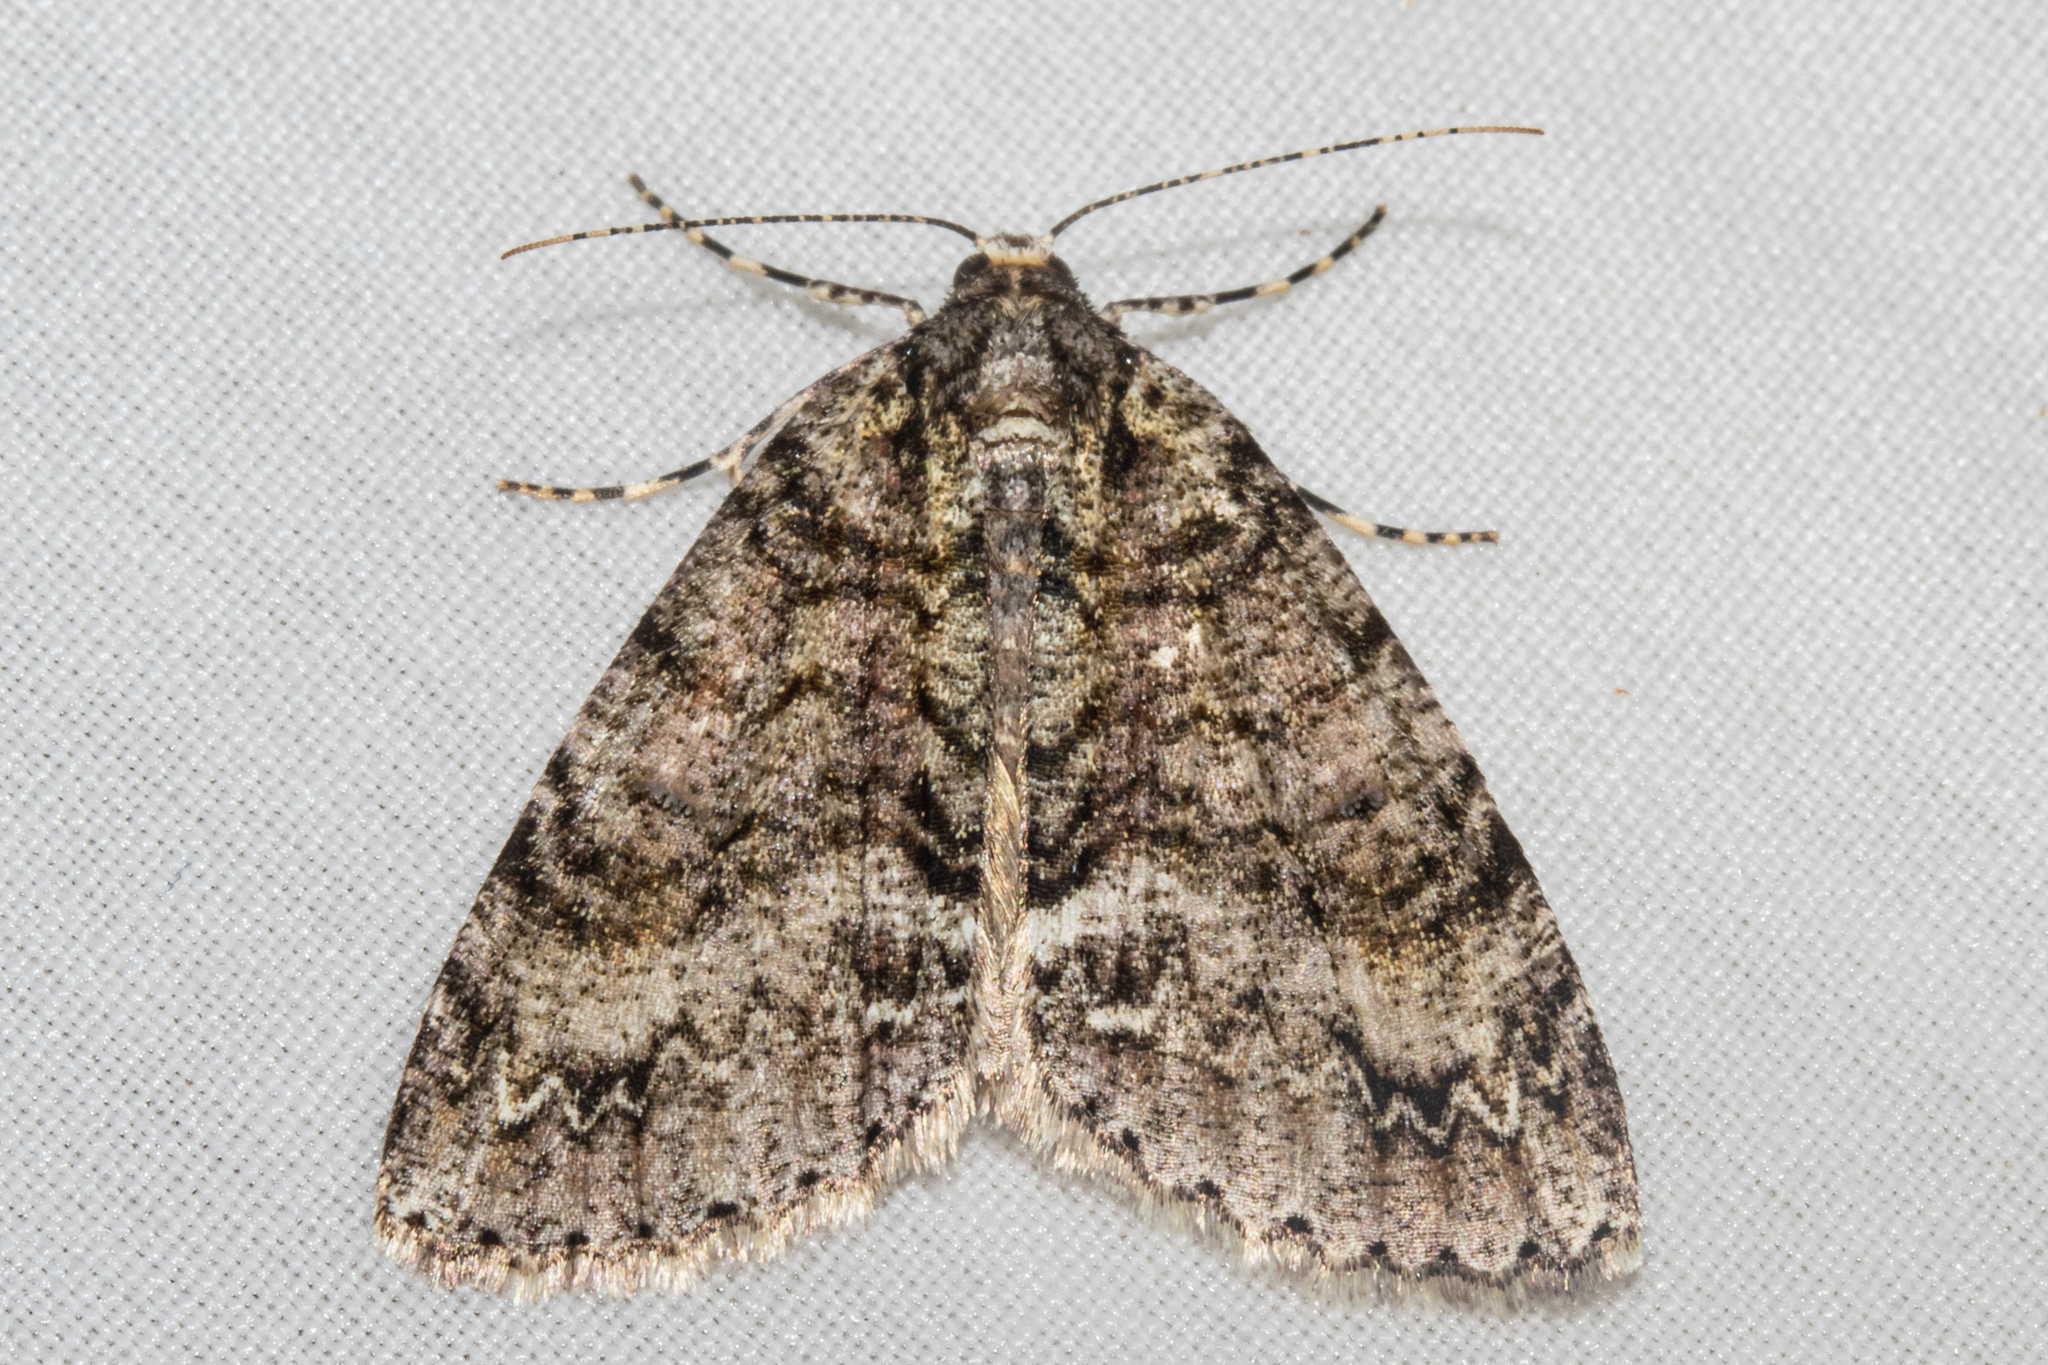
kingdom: Animalia
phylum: Arthropoda
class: Insecta
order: Lepidoptera
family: Geometridae
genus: Pseudocoremia
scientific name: Pseudocoremia suavis
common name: Common forest looper
